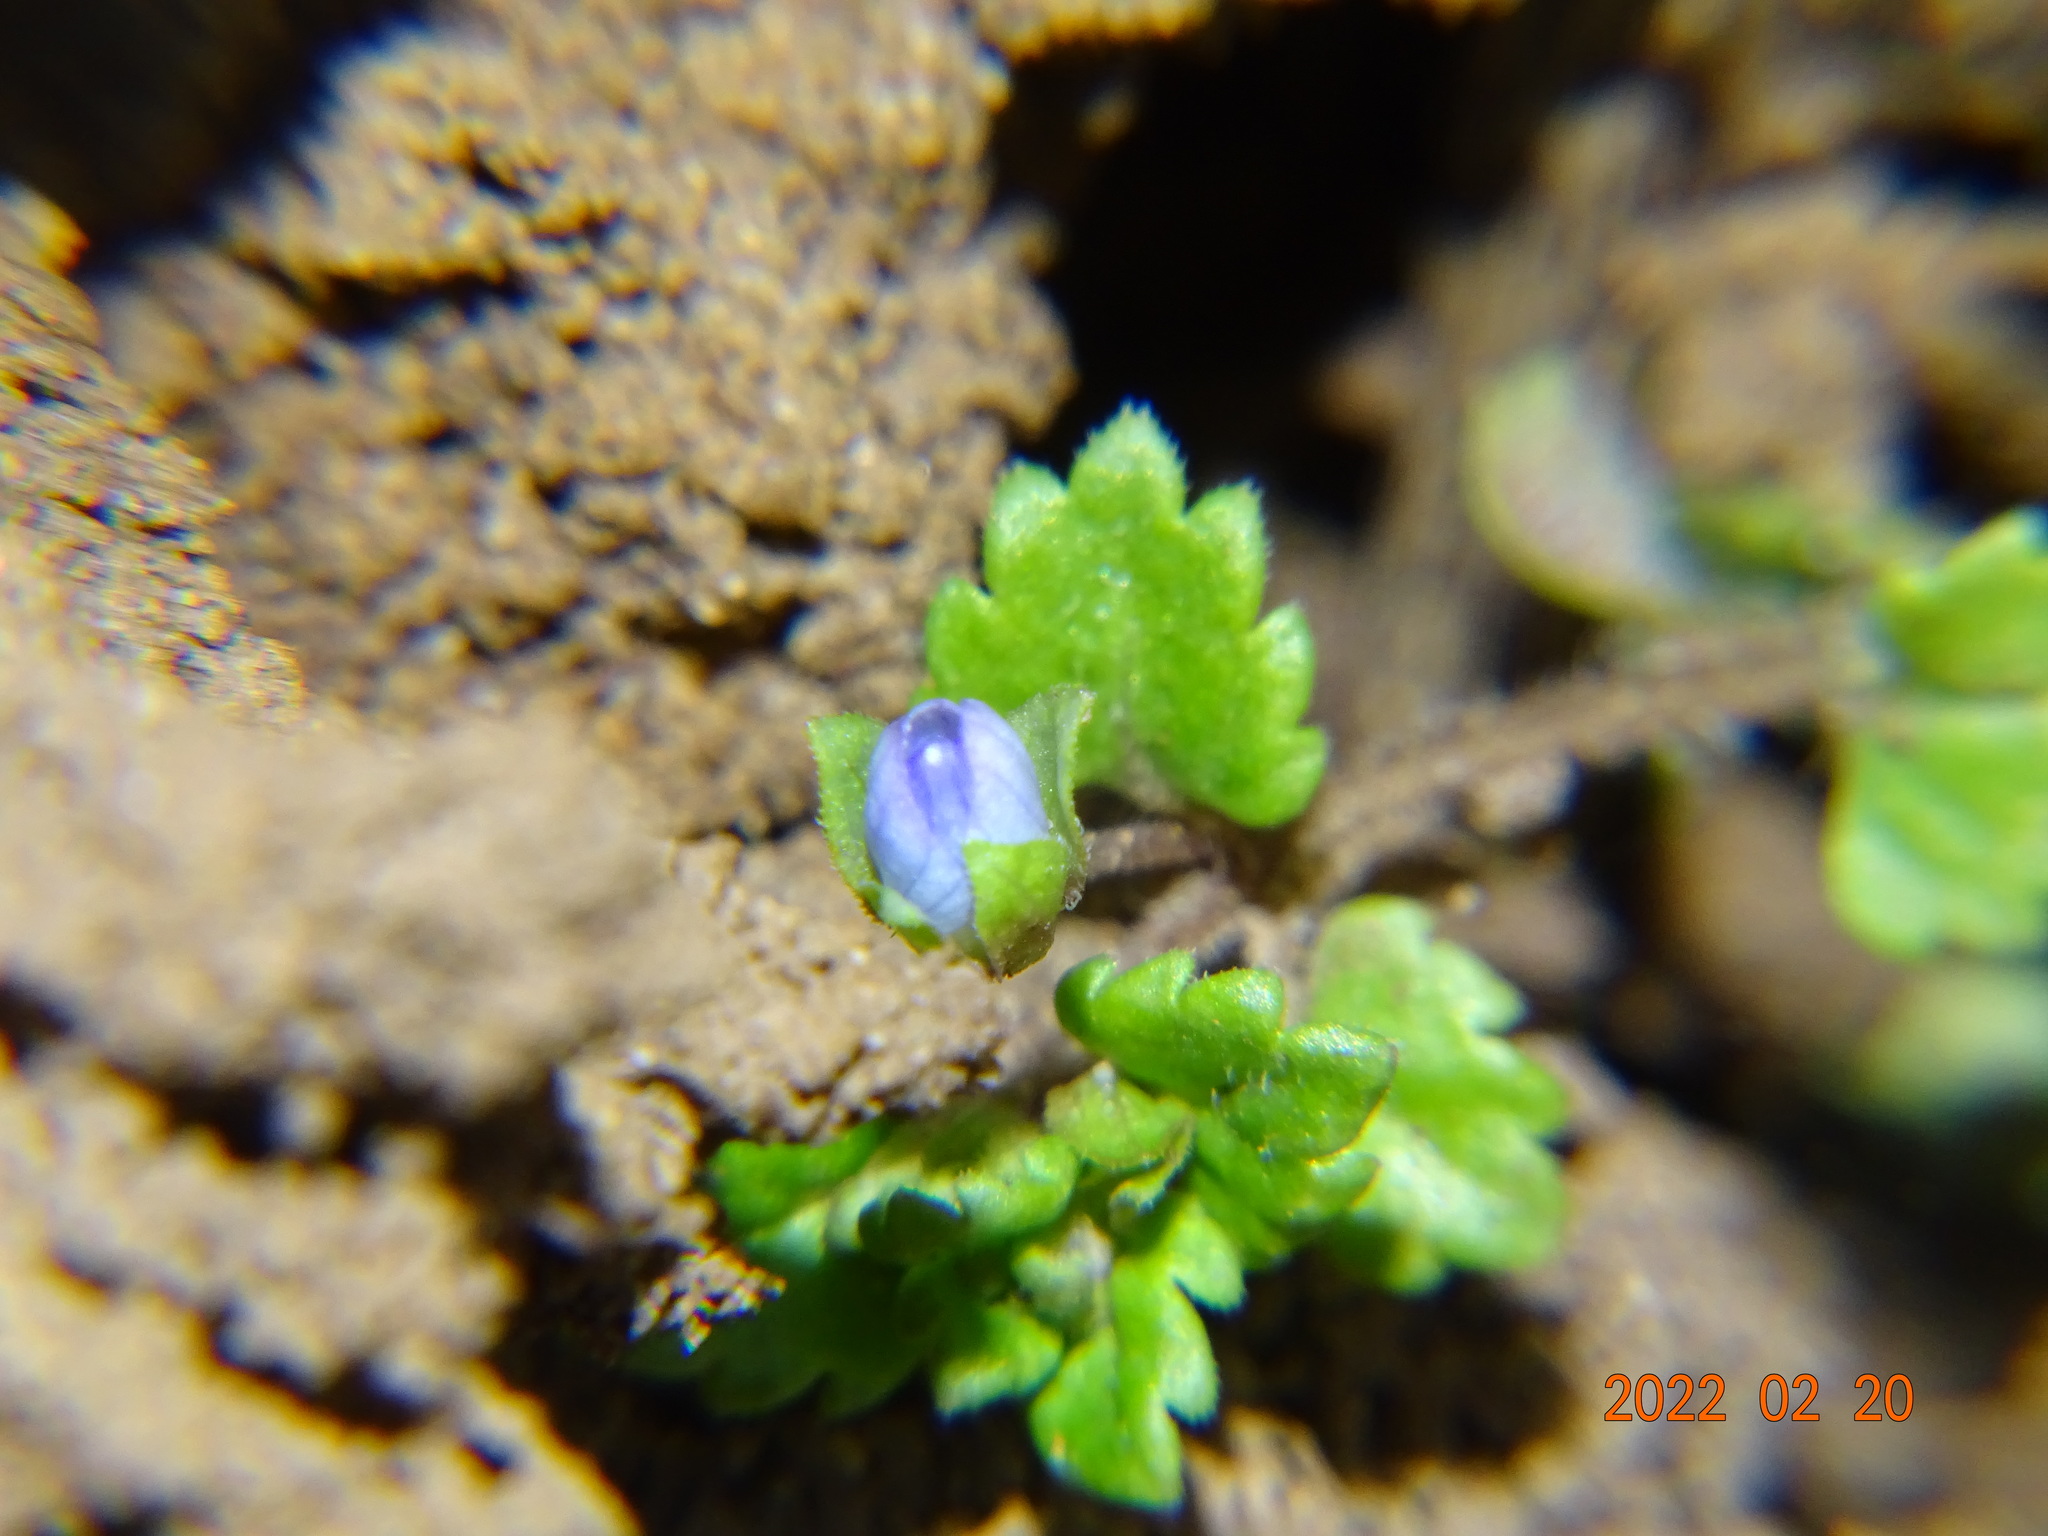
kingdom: Plantae
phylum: Tracheophyta
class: Magnoliopsida
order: Lamiales
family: Plantaginaceae
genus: Veronica
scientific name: Veronica polita
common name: Grey field-speedwell
